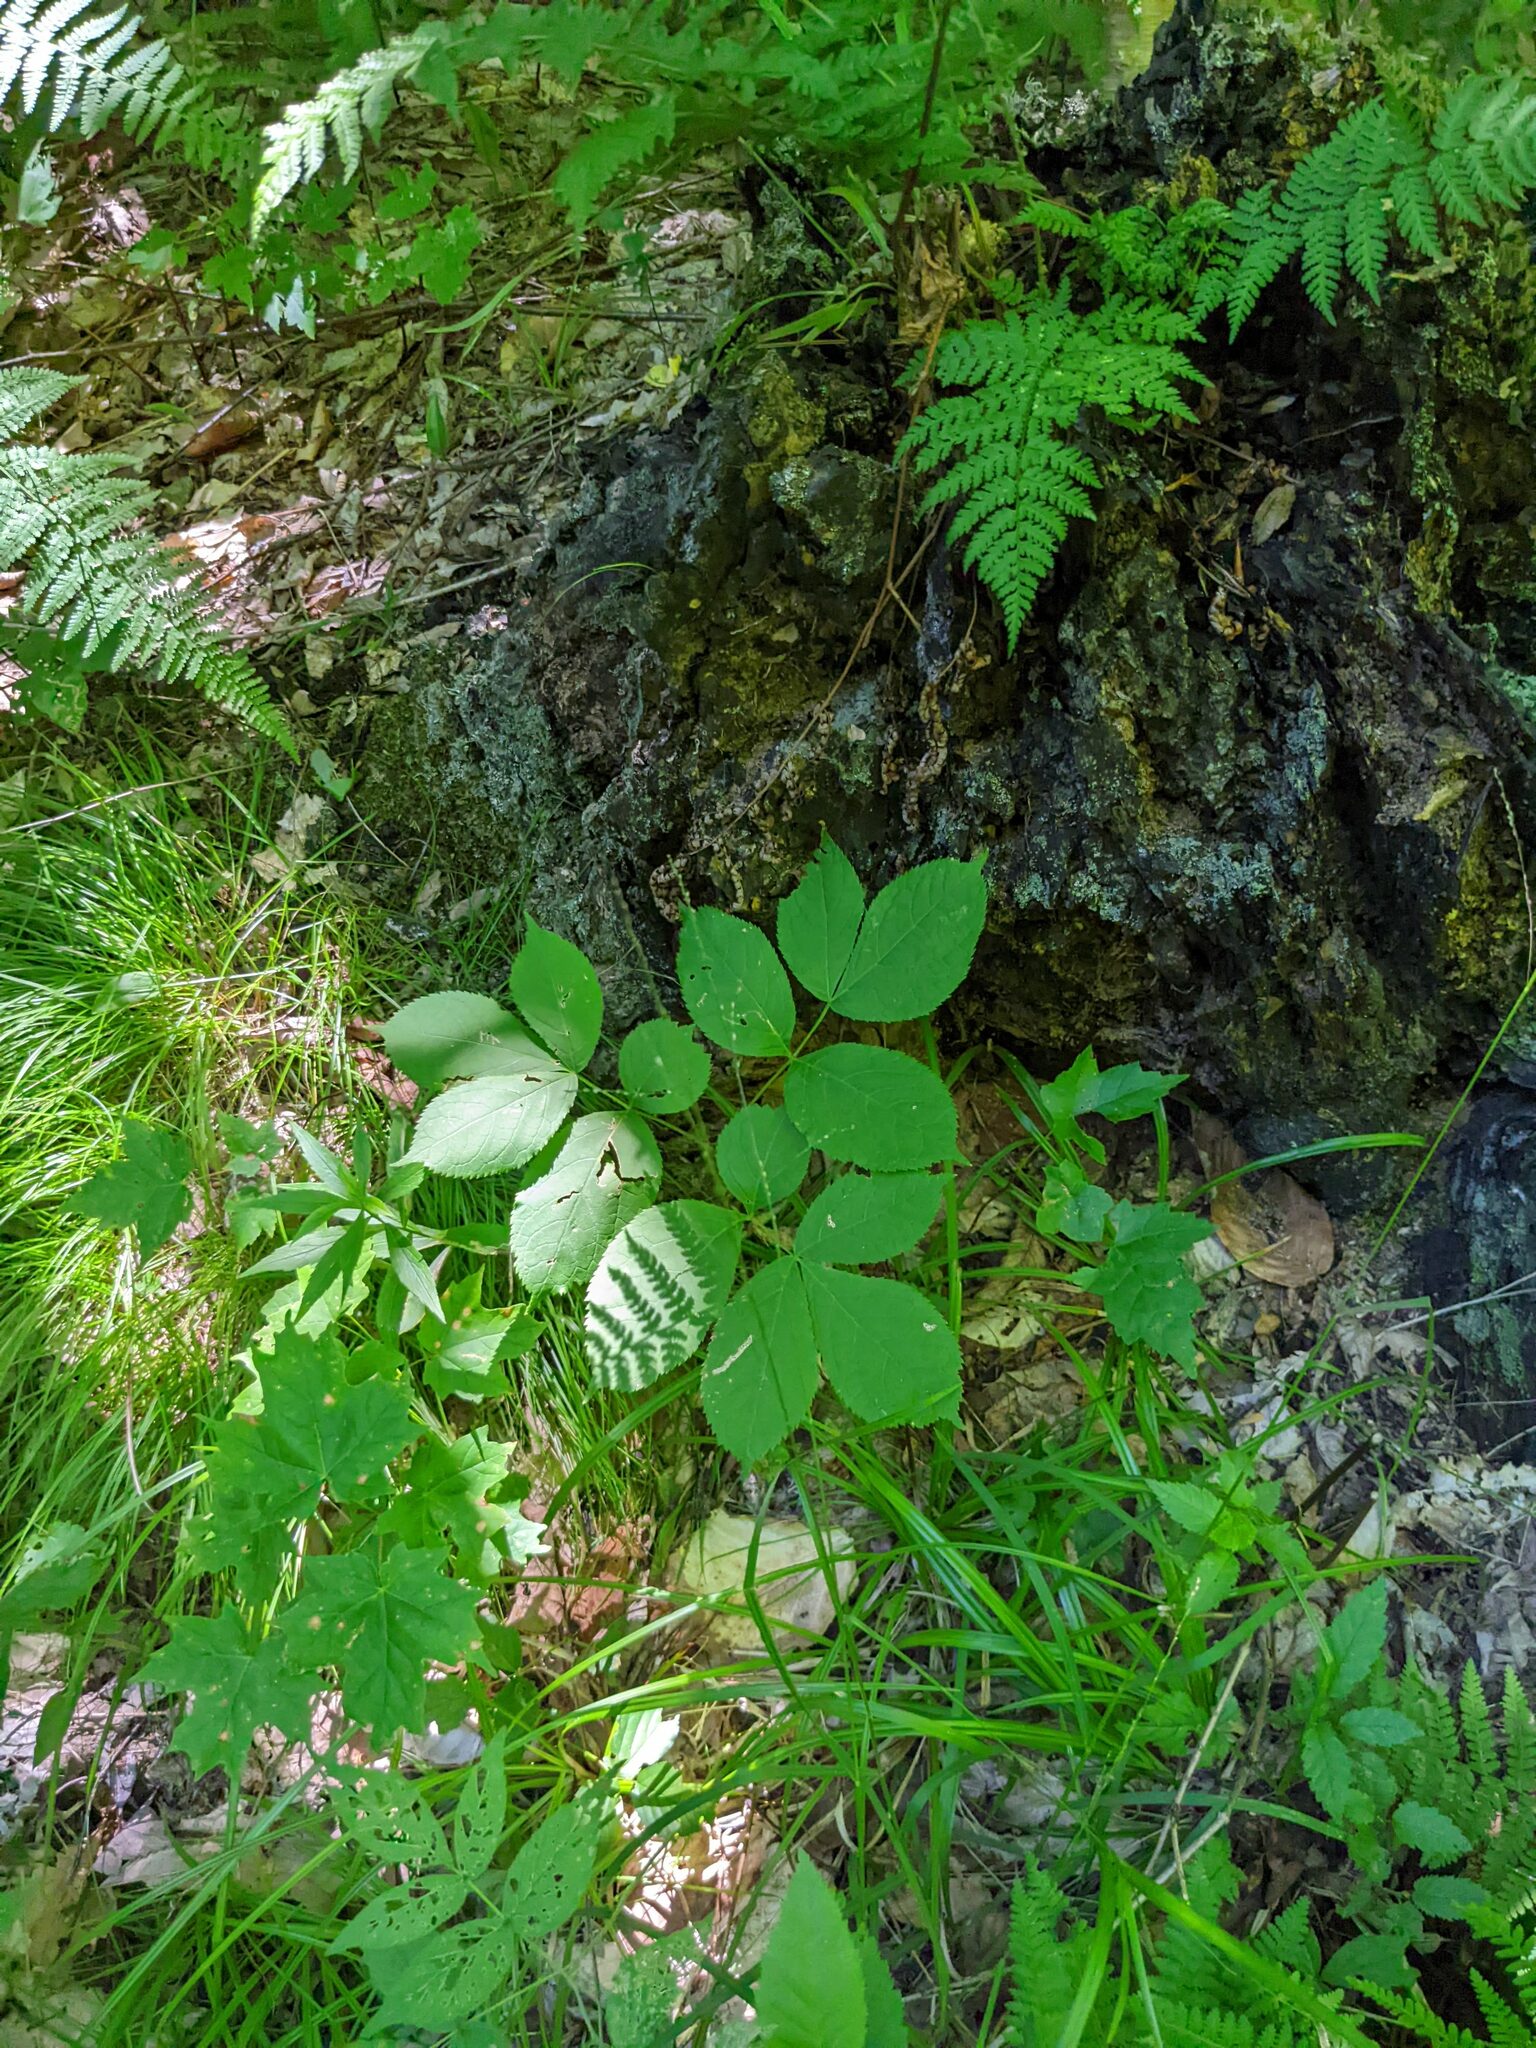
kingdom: Plantae
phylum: Tracheophyta
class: Magnoliopsida
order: Apiales
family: Araliaceae
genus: Aralia
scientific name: Aralia nudicaulis
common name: Wild sarsaparilla
